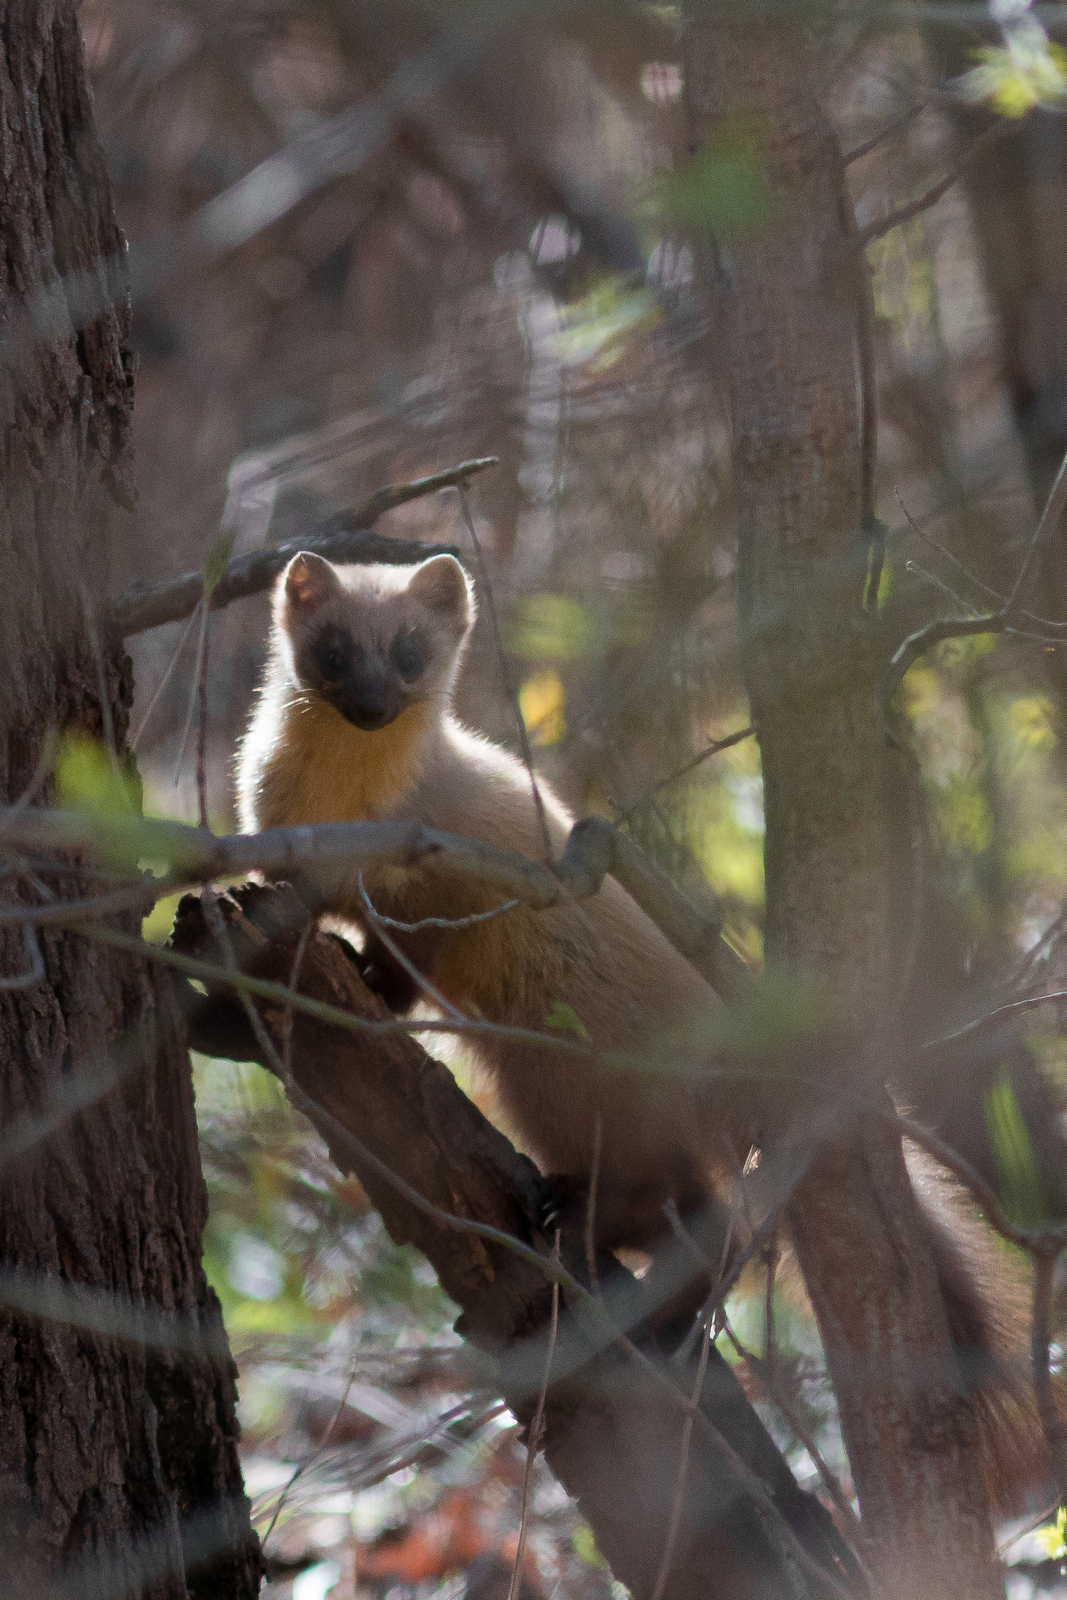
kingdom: Animalia
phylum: Chordata
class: Mammalia
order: Carnivora
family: Mustelidae
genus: Martes
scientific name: Martes martes
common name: European pine marten
